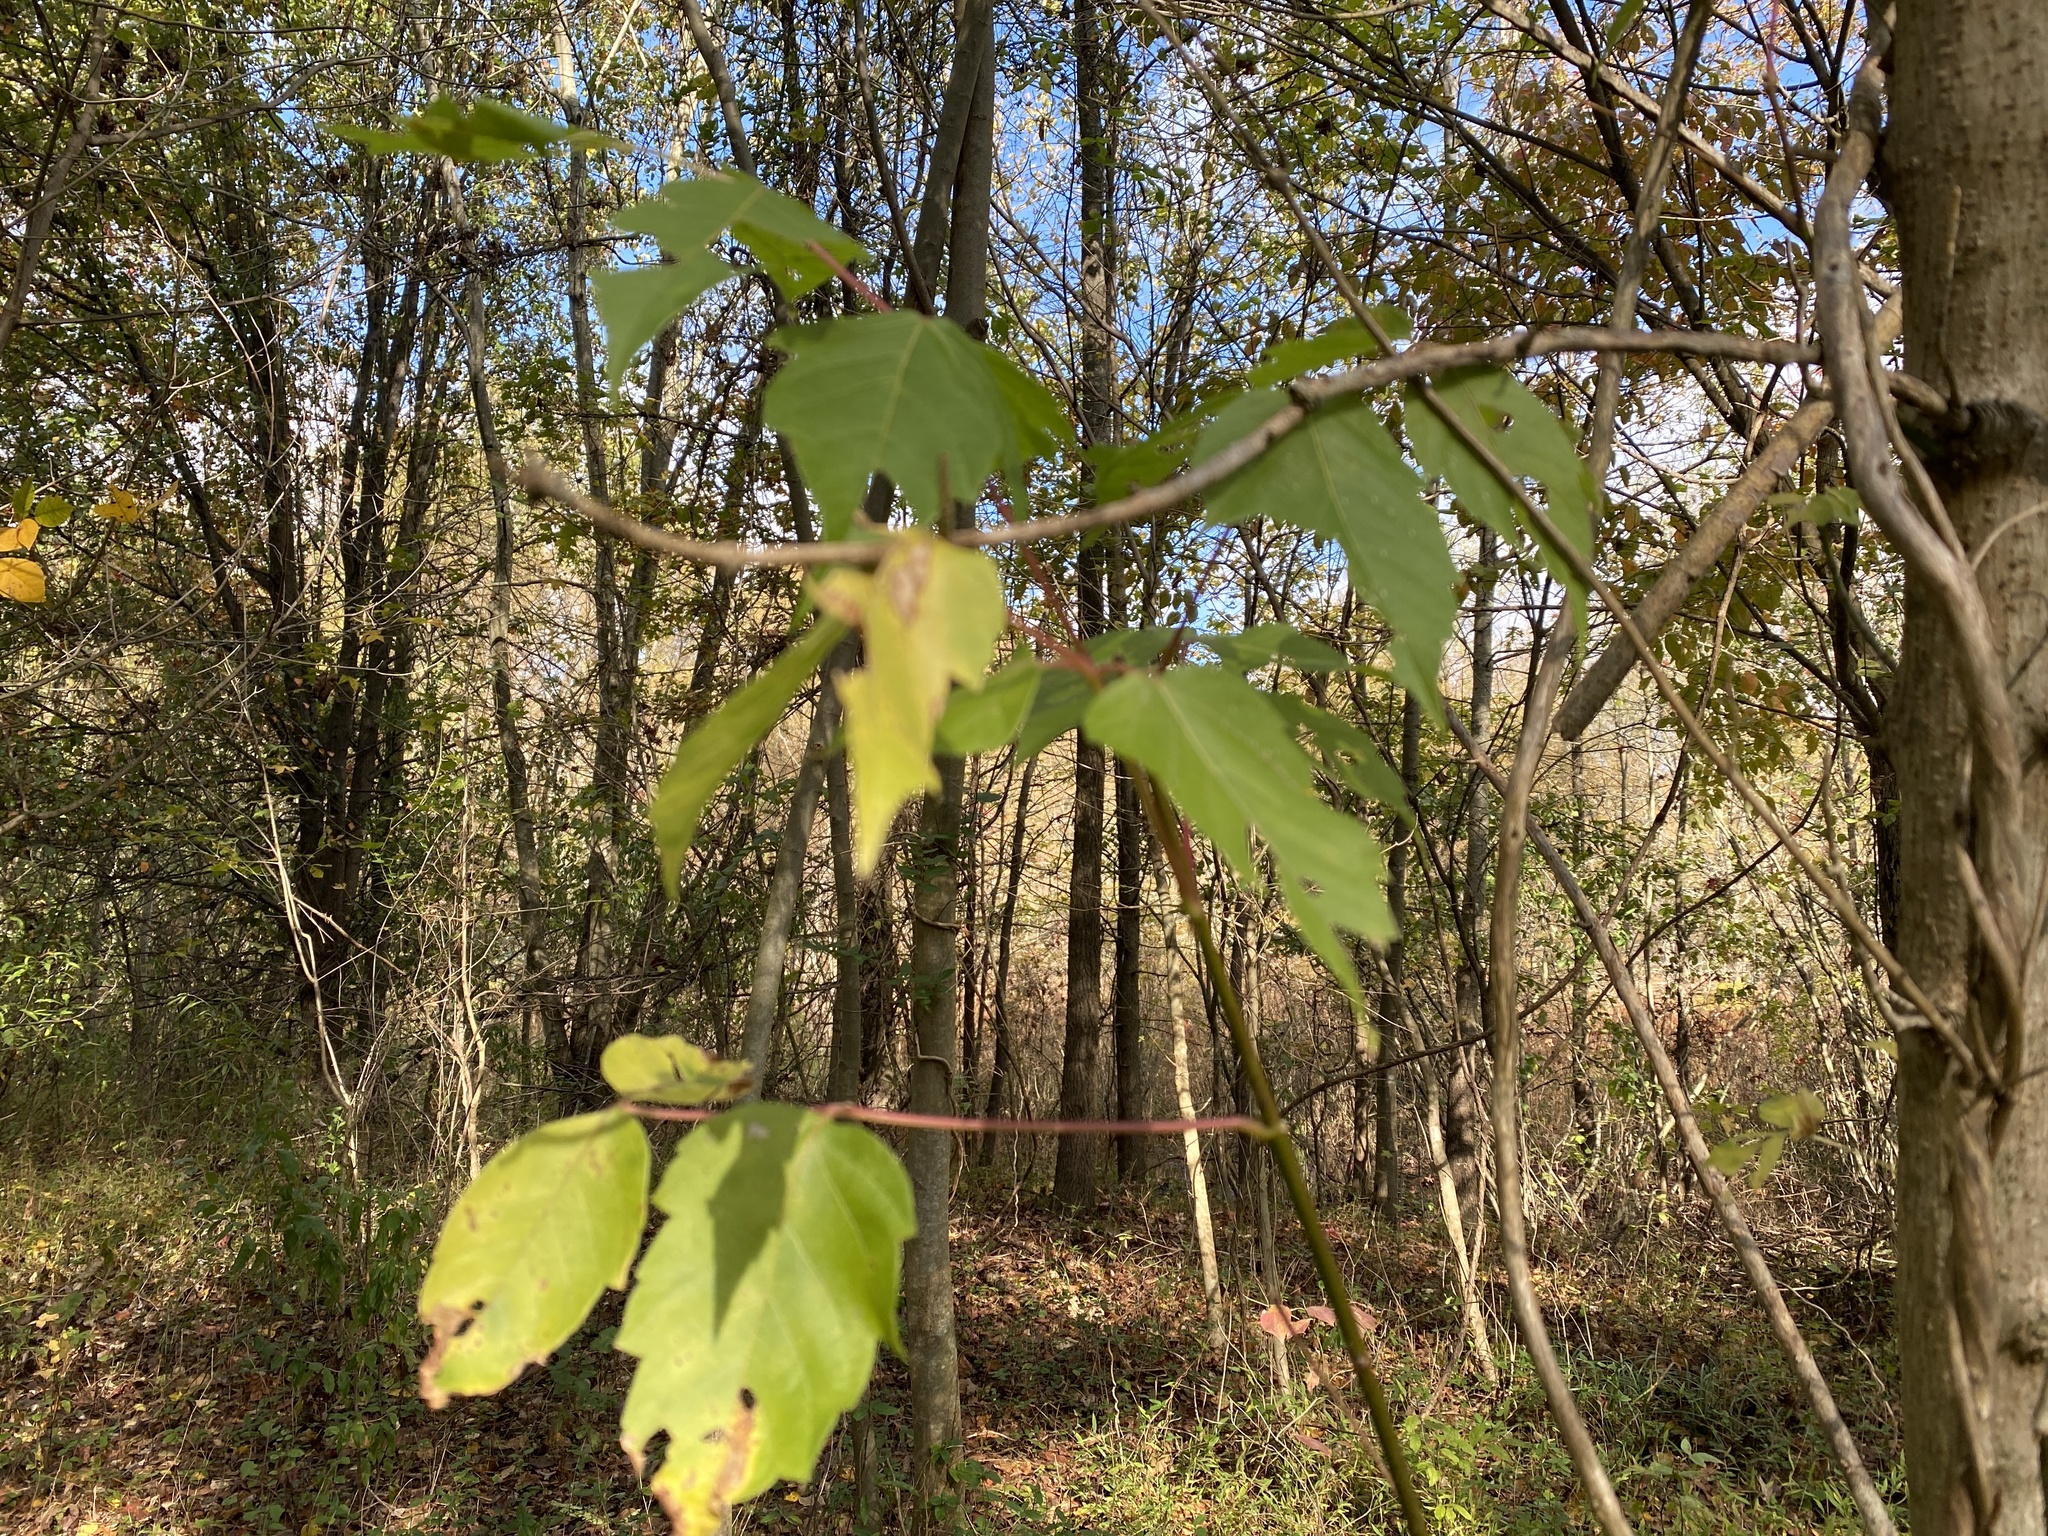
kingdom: Plantae
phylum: Tracheophyta
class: Magnoliopsida
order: Sapindales
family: Sapindaceae
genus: Acer
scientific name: Acer negundo
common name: Ashleaf maple
